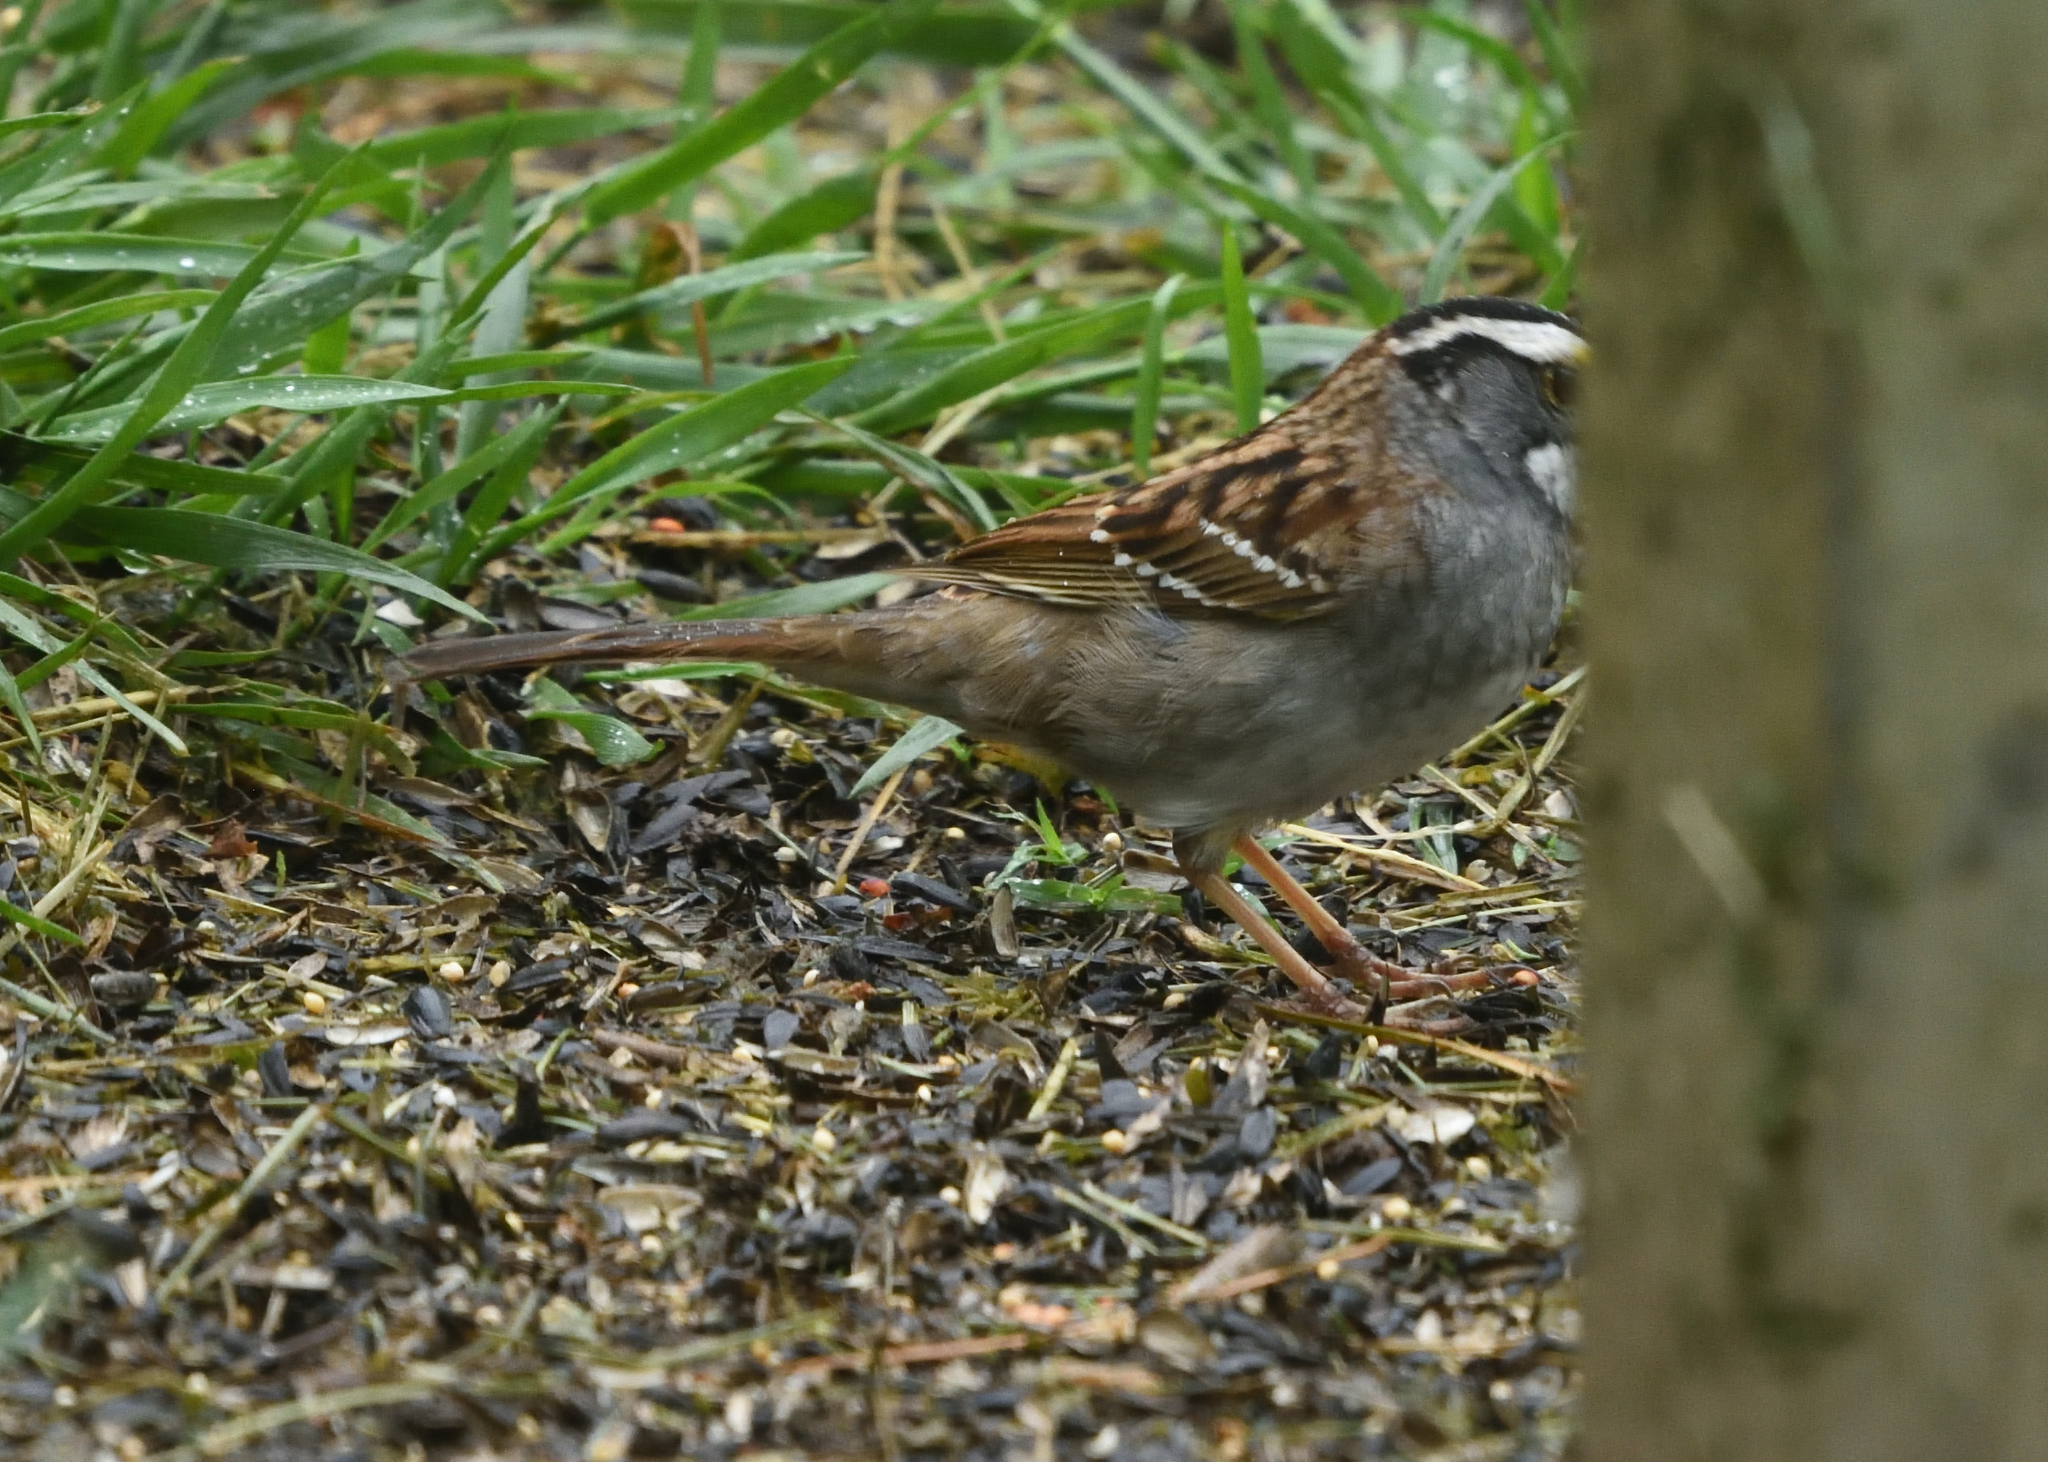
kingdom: Animalia
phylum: Chordata
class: Aves
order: Passeriformes
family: Passerellidae
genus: Zonotrichia
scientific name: Zonotrichia albicollis
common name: White-throated sparrow
